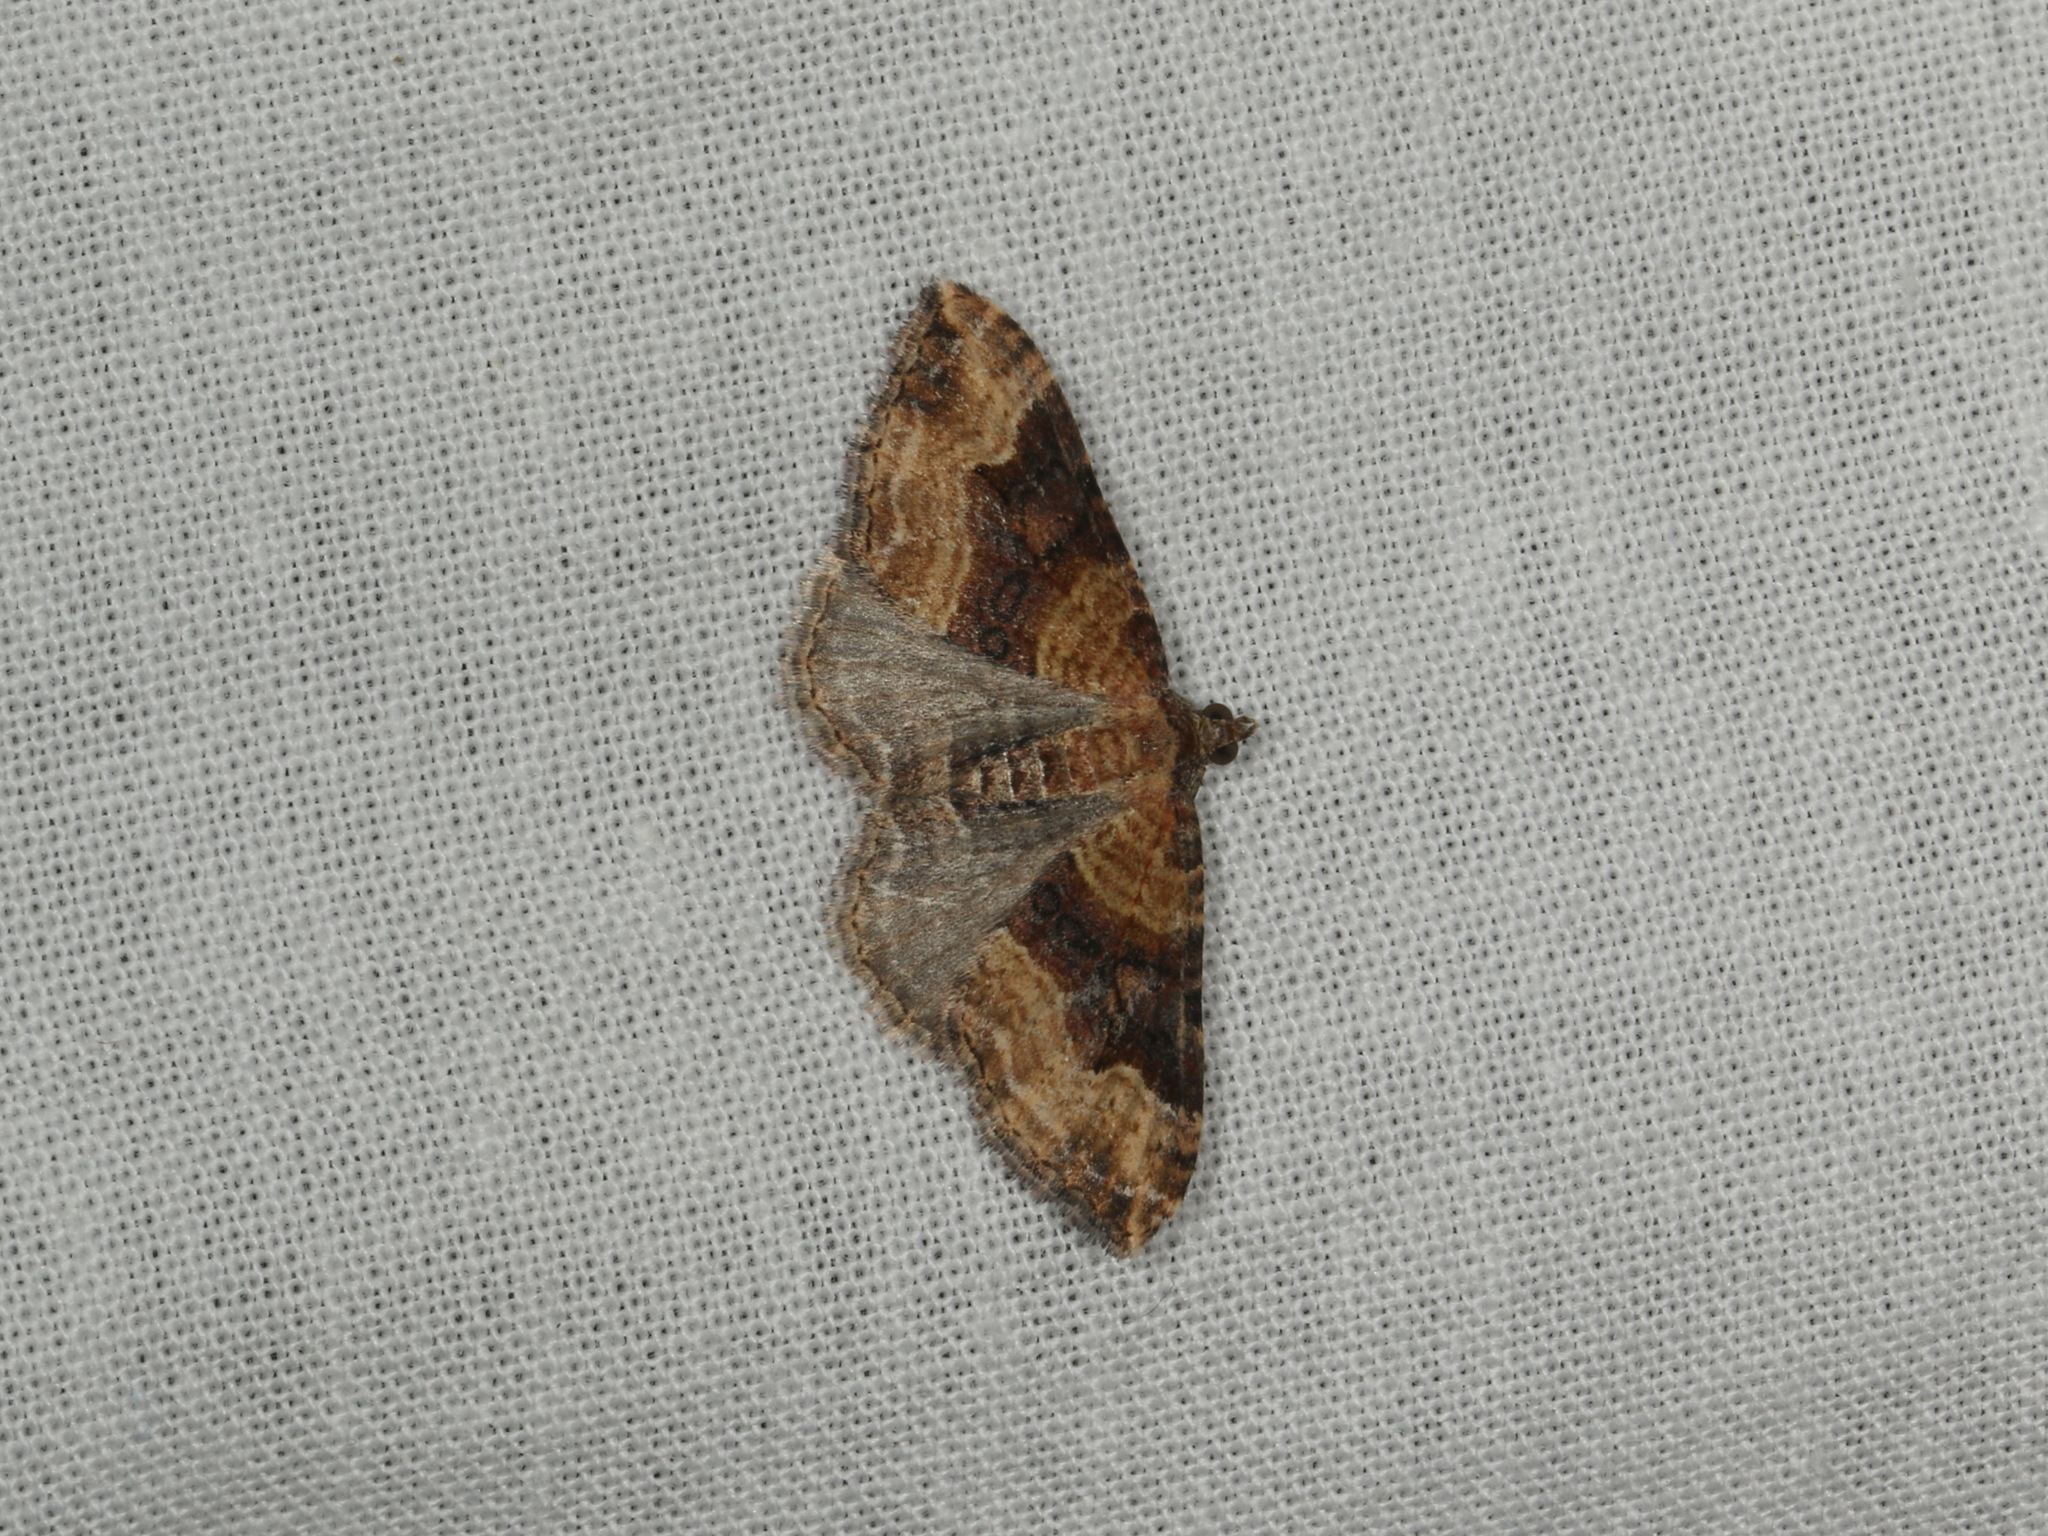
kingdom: Animalia
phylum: Arthropoda
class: Insecta
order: Lepidoptera
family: Geometridae
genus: Epyaxa
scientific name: Epyaxa subidaria
